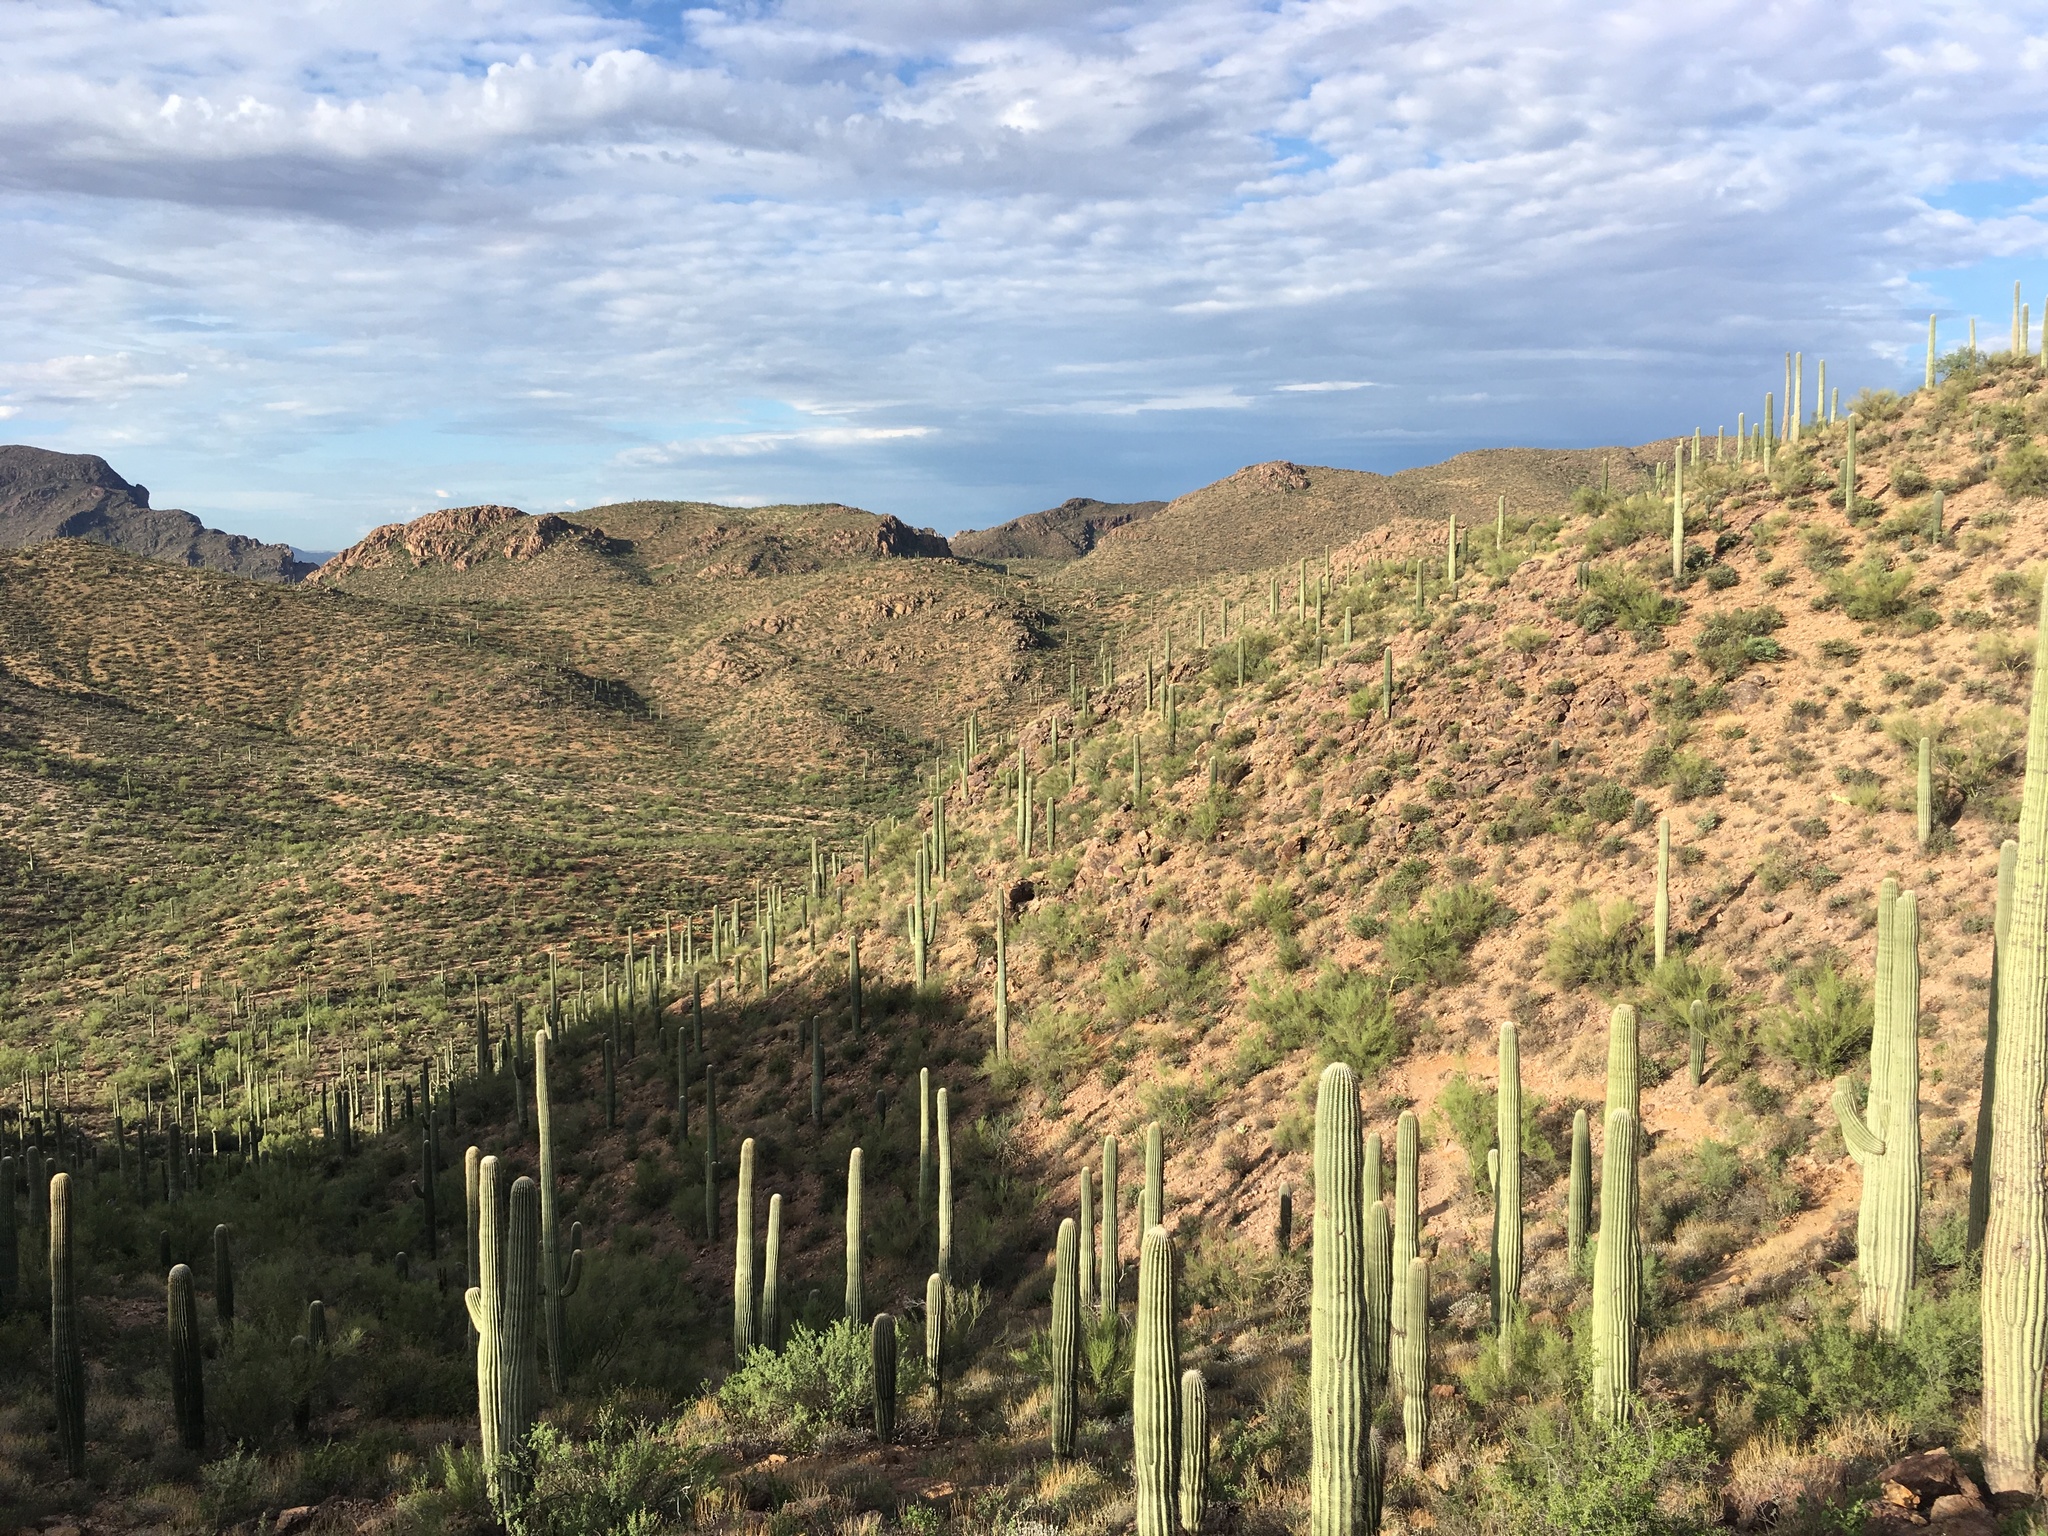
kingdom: Plantae
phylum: Tracheophyta
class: Magnoliopsida
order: Caryophyllales
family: Cactaceae
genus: Carnegiea
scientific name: Carnegiea gigantea
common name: Saguaro
